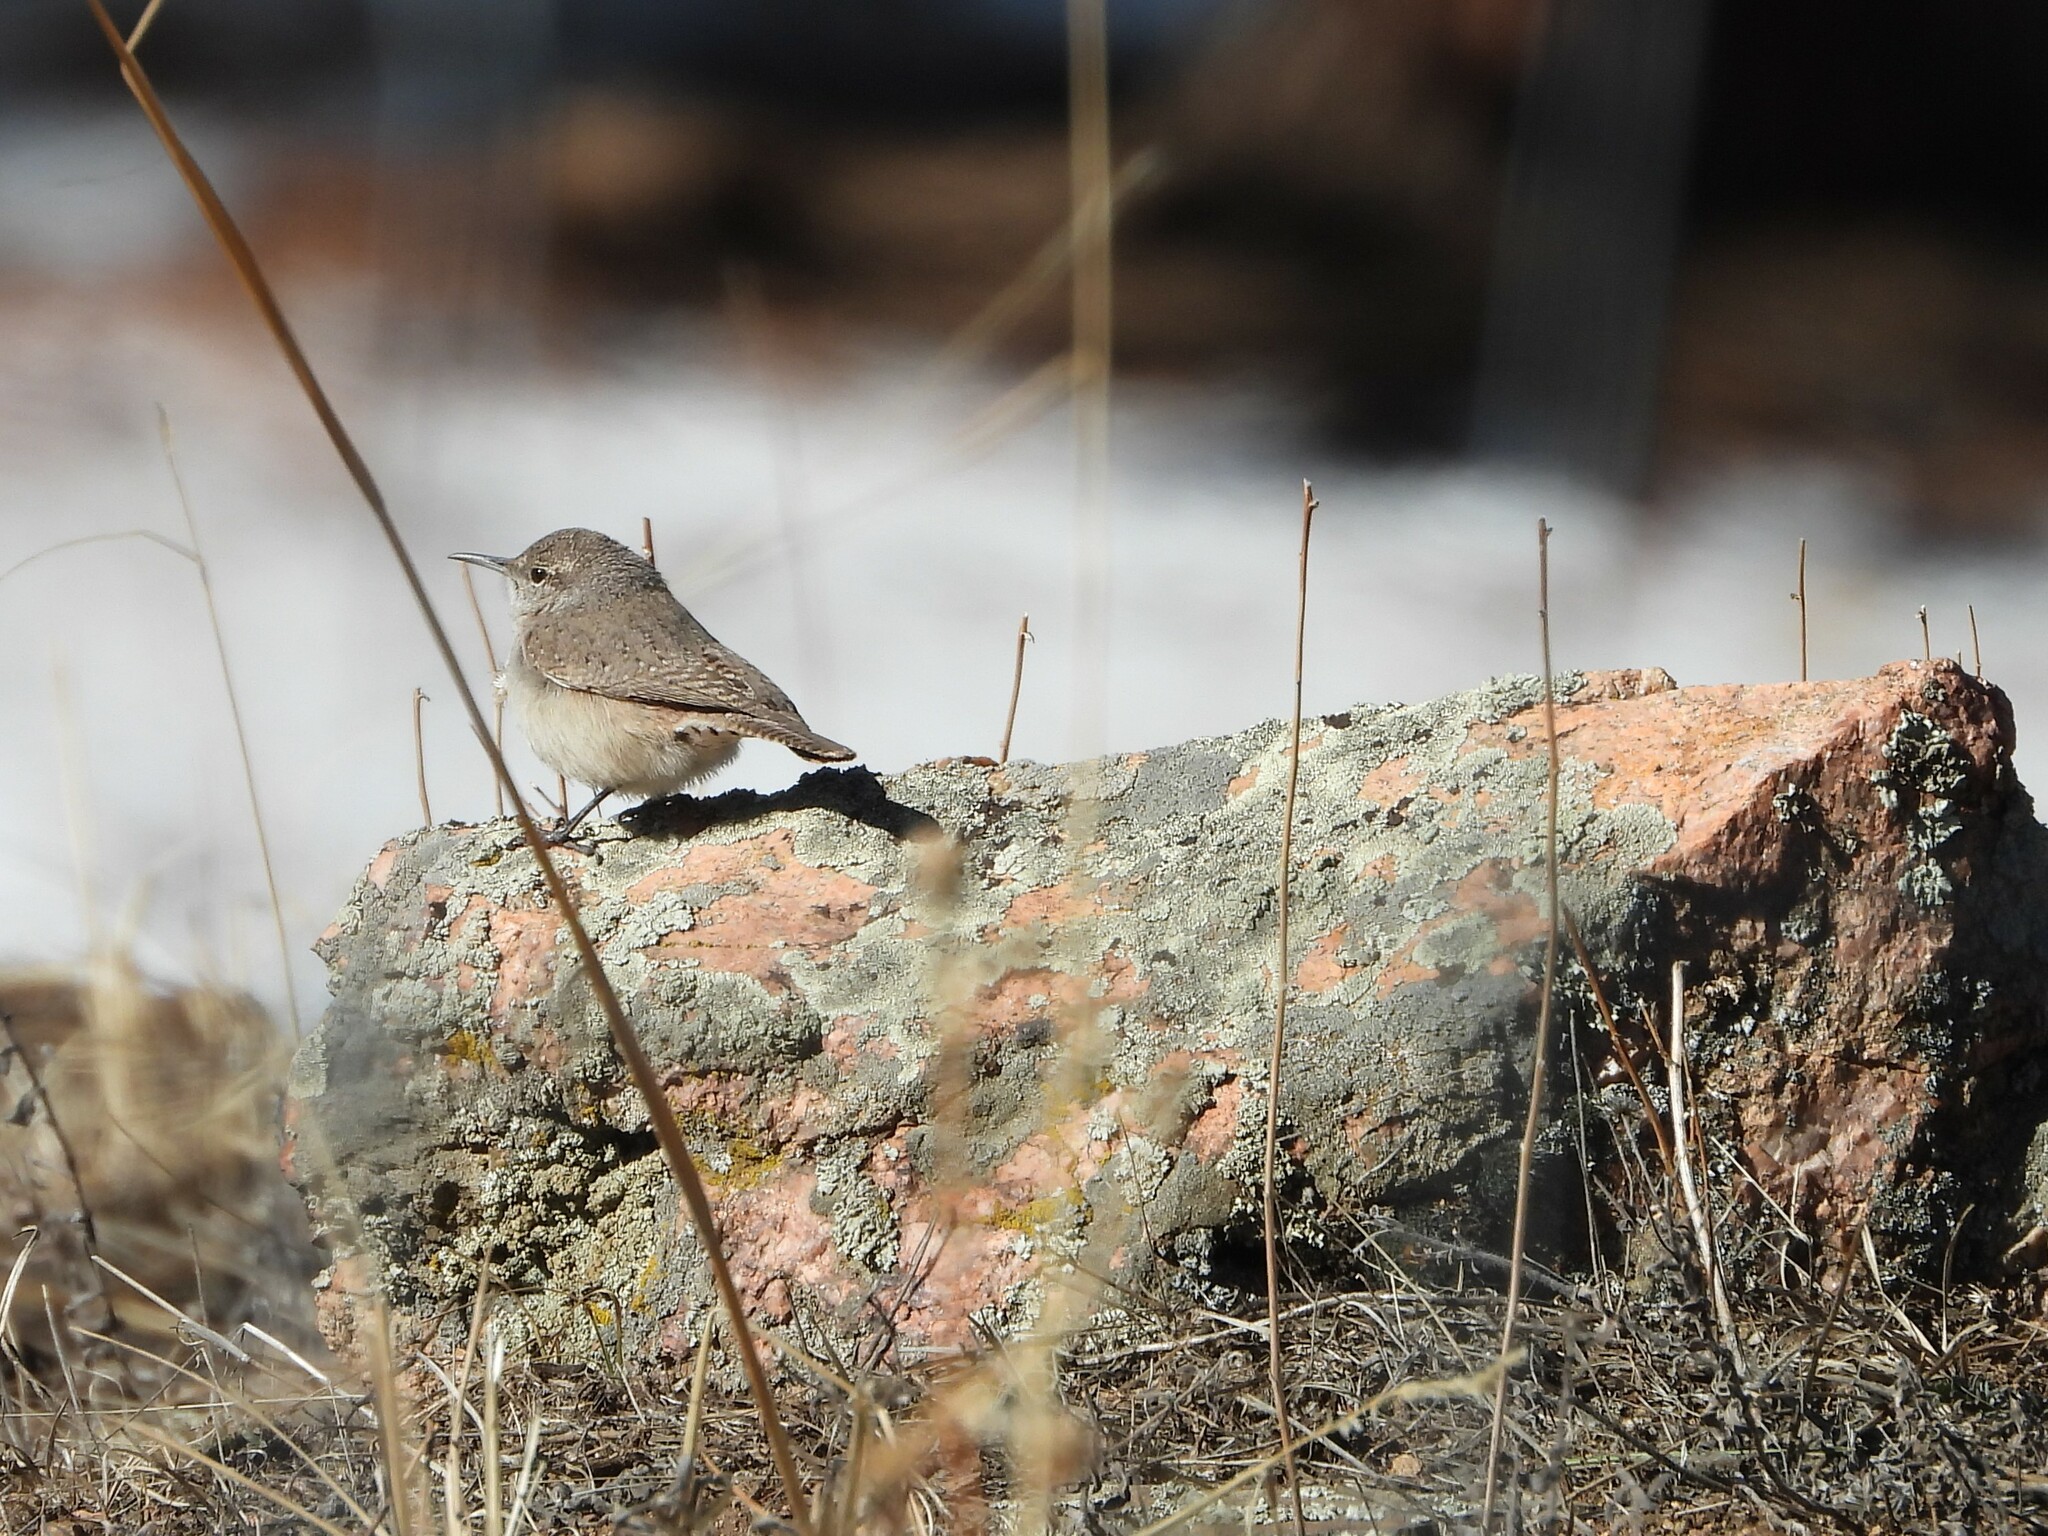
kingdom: Animalia
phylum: Chordata
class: Aves
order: Passeriformes
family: Troglodytidae
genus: Salpinctes
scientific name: Salpinctes obsoletus
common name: Rock wren
